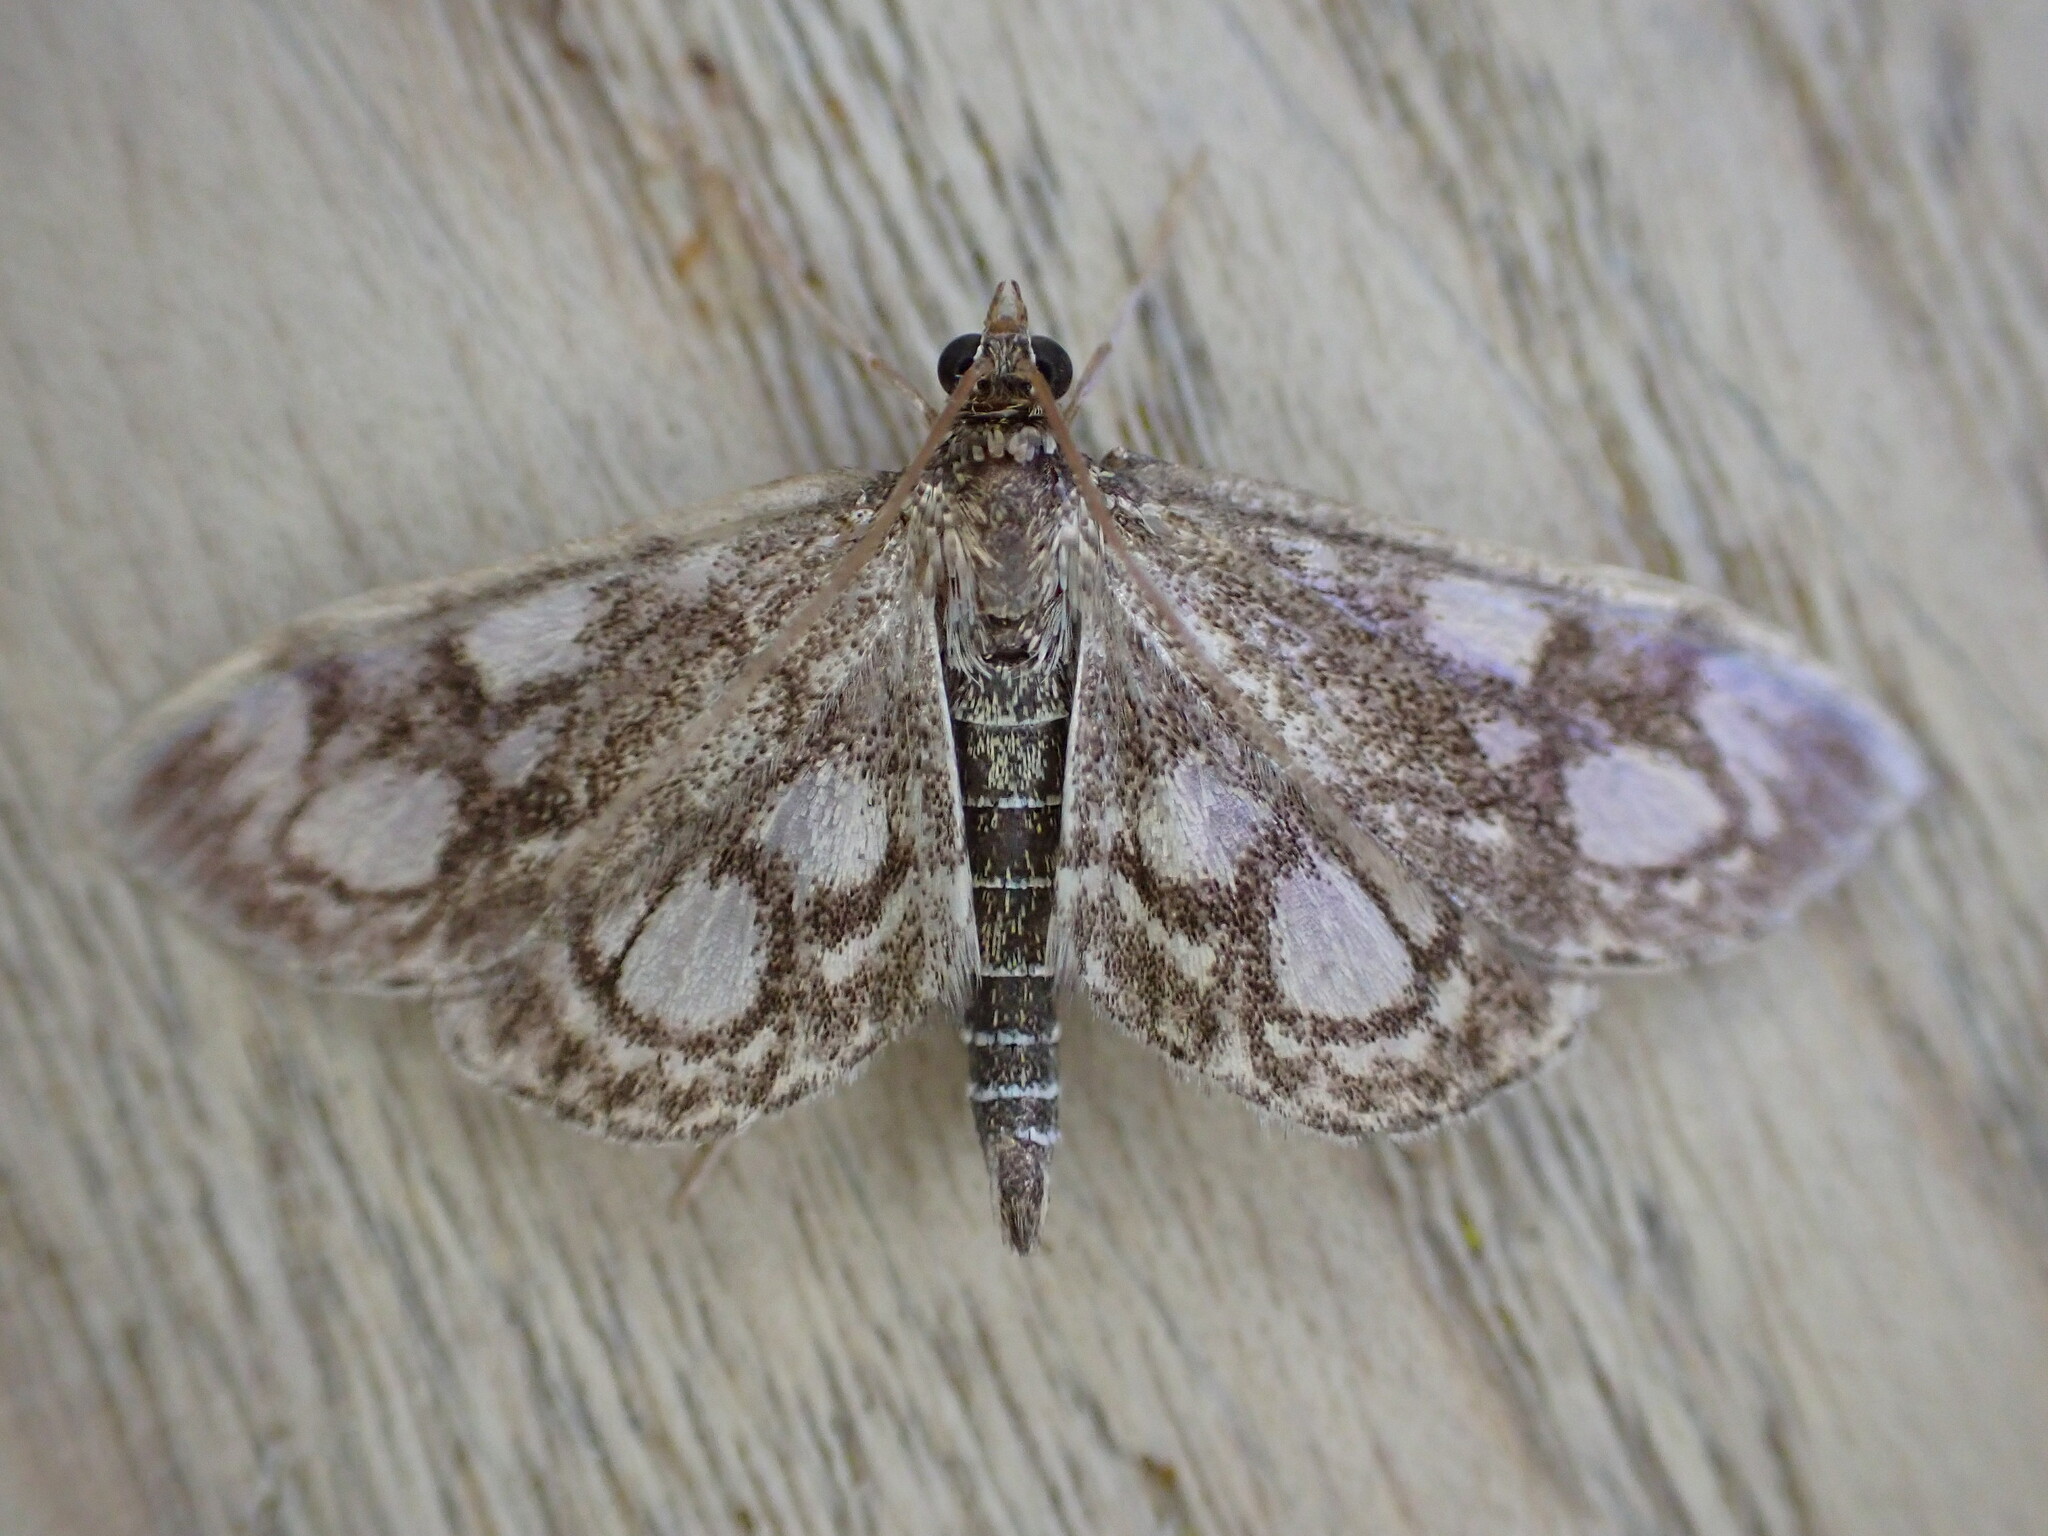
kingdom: Animalia
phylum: Arthropoda
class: Insecta
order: Lepidoptera
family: Crambidae
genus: Anania
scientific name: Anania coronata
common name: Elder pearl
